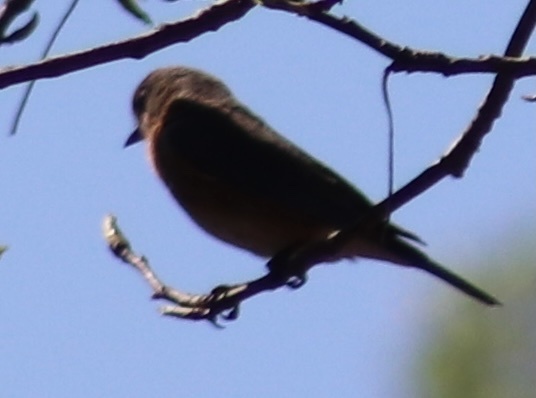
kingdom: Animalia
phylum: Chordata
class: Aves
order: Passeriformes
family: Turdidae
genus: Sialia
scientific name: Sialia sialis
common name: Eastern bluebird
